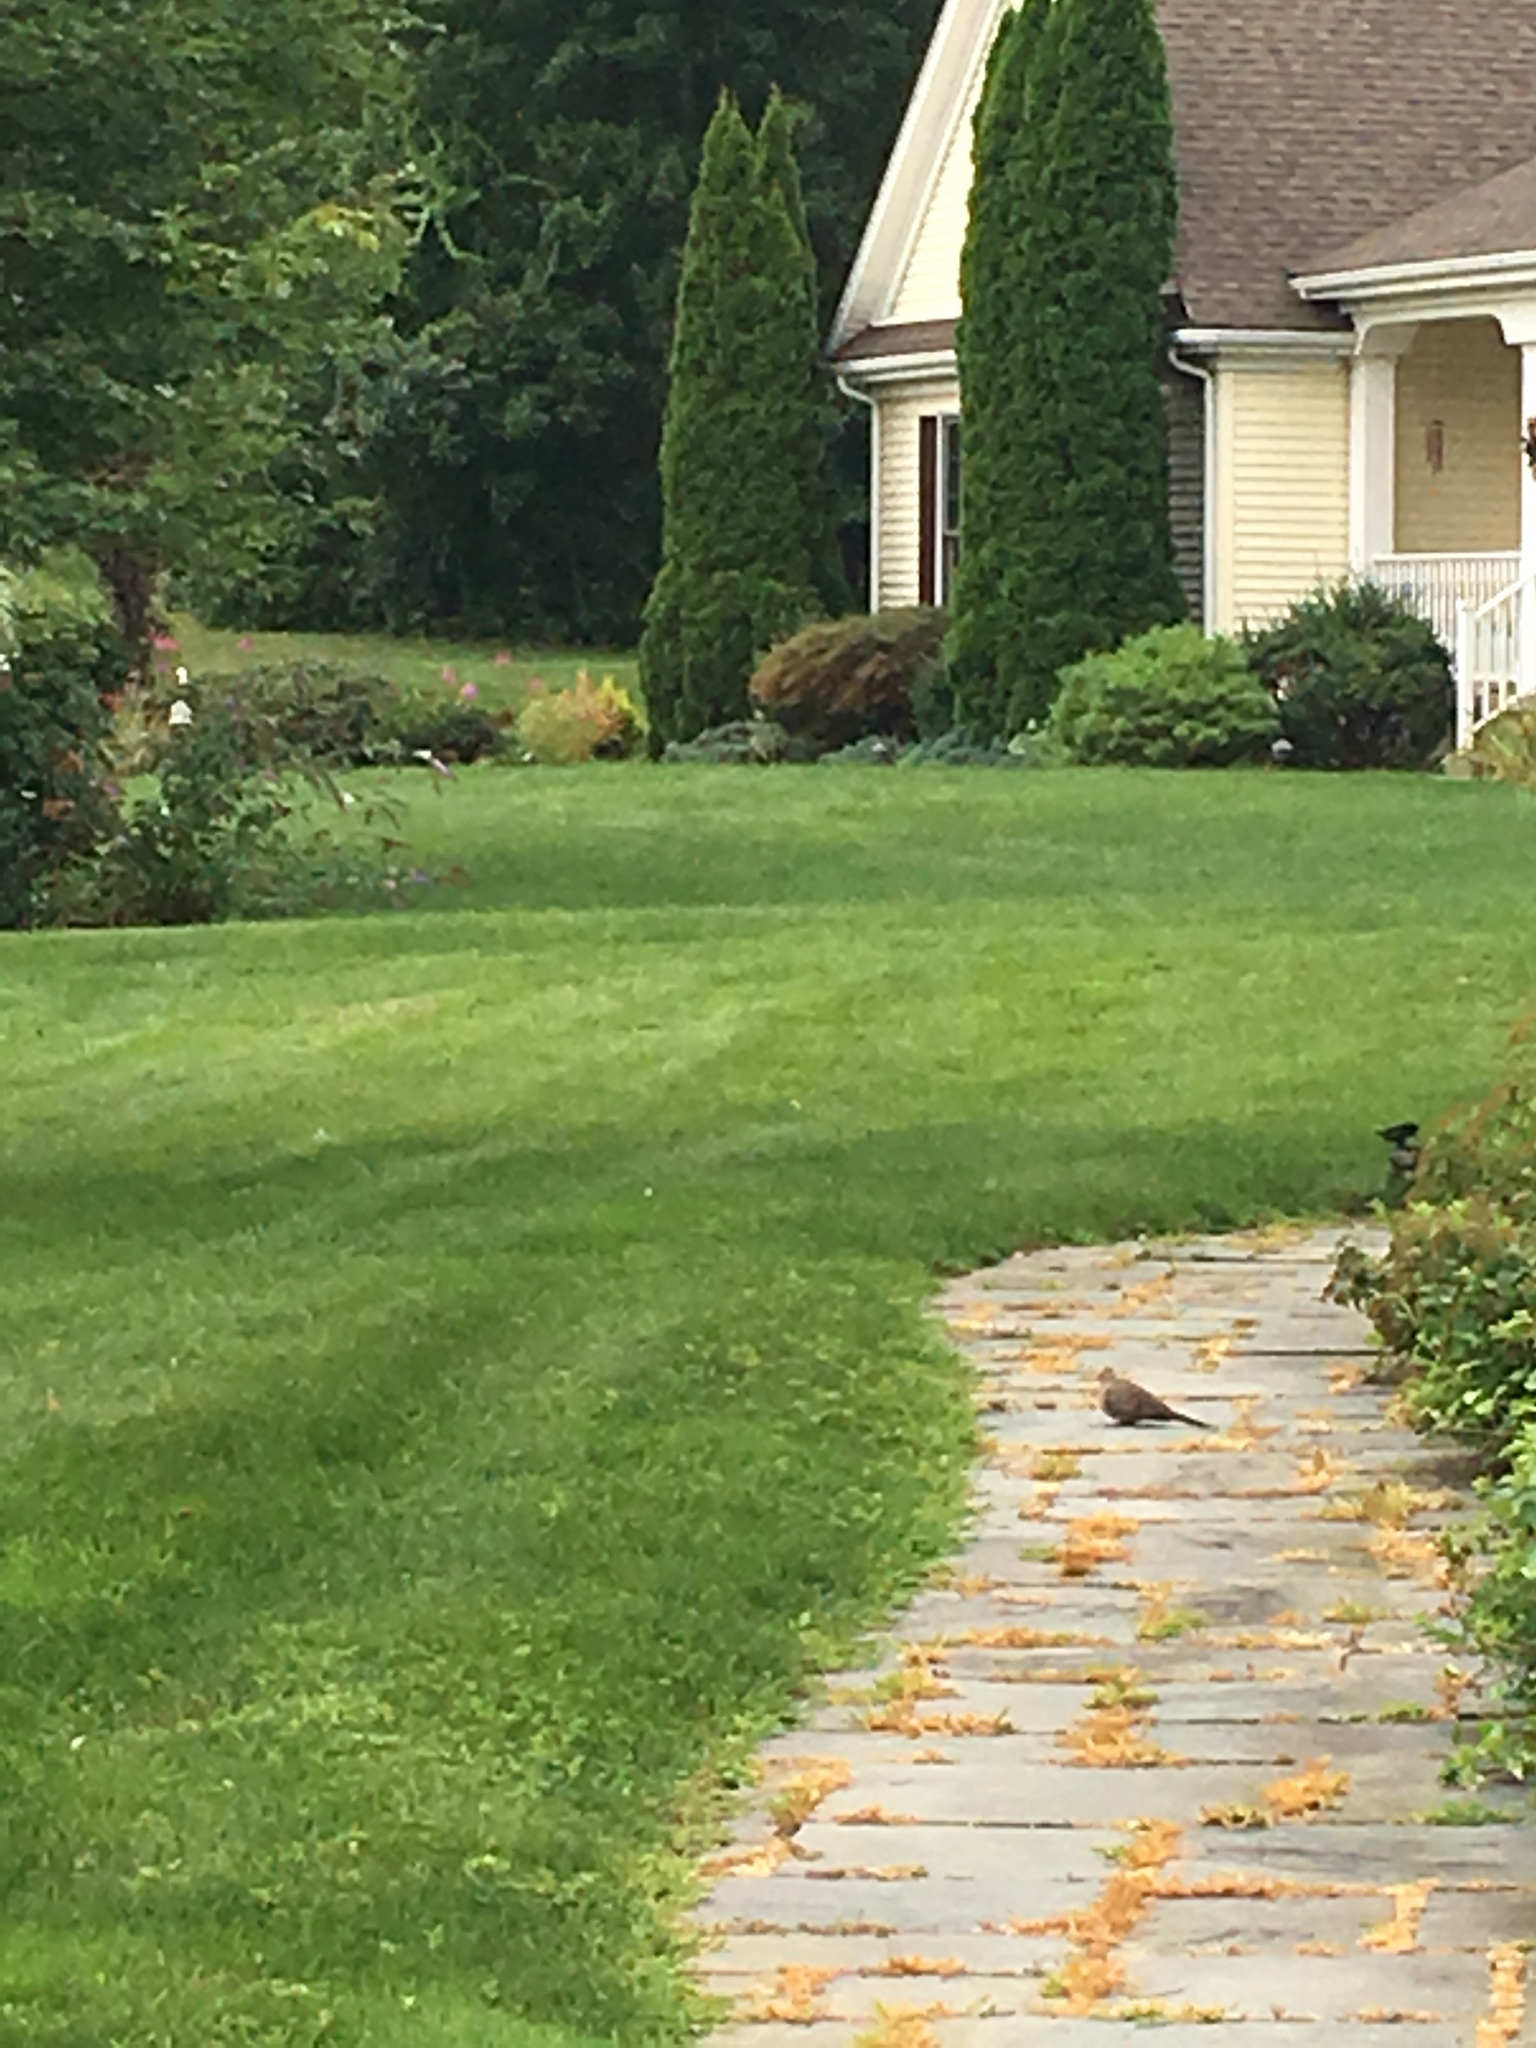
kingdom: Animalia
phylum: Chordata
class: Aves
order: Columbiformes
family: Columbidae
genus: Zenaida
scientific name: Zenaida macroura
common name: Mourning dove
